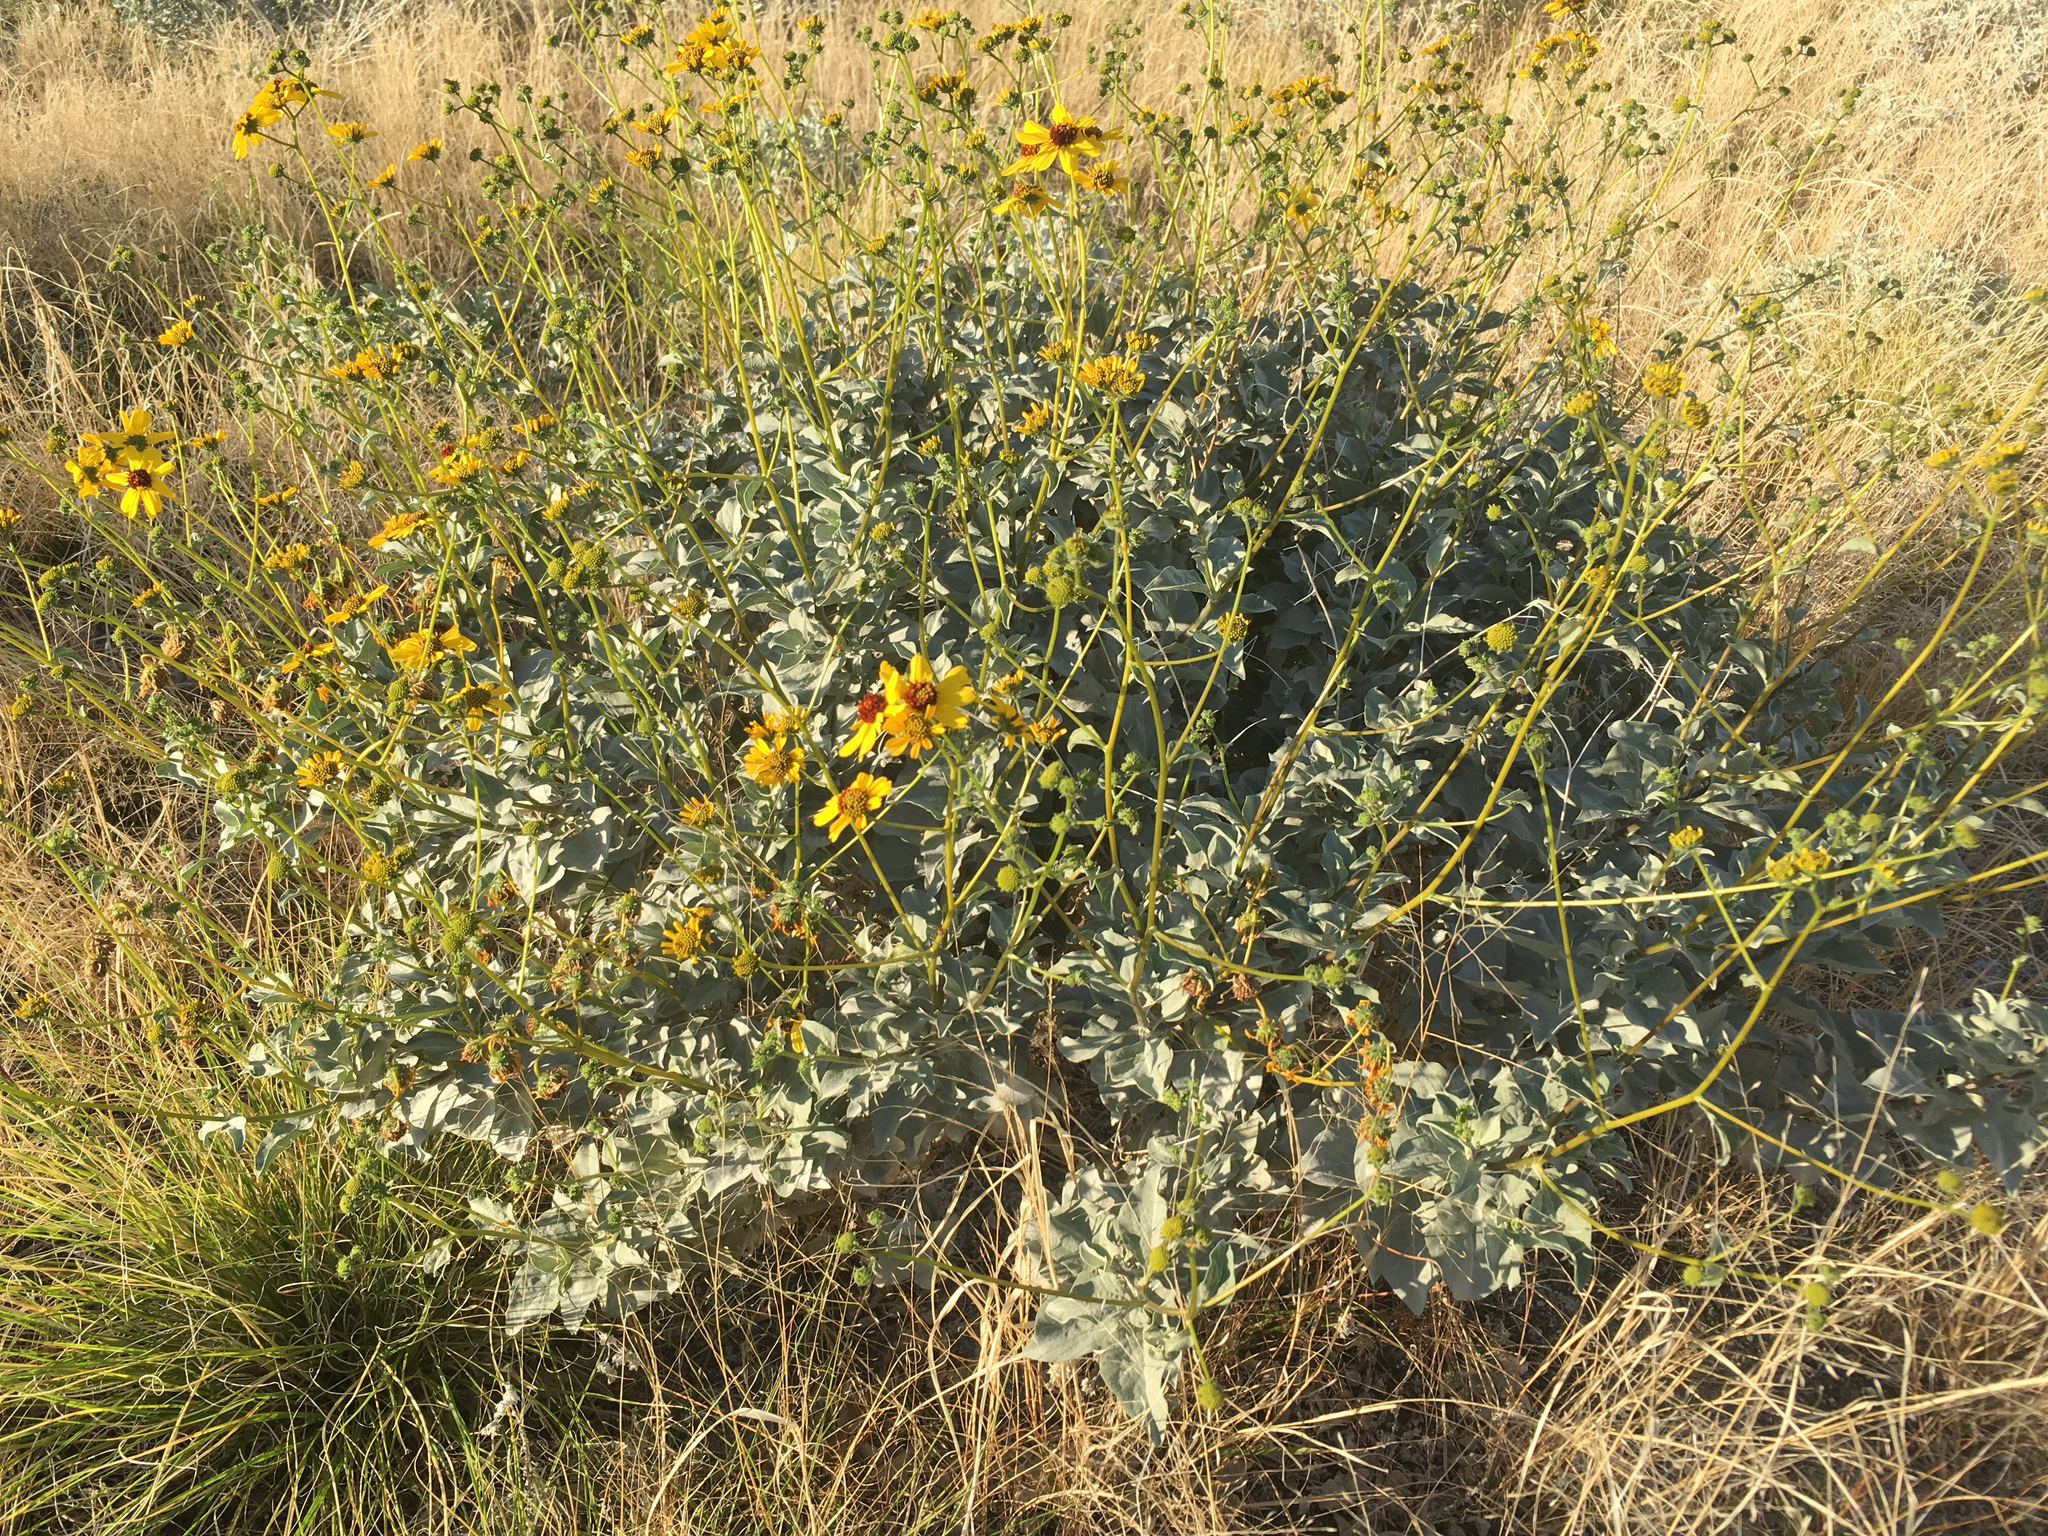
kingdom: Plantae
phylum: Tracheophyta
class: Magnoliopsida
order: Asterales
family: Asteraceae
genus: Encelia
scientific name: Encelia farinosa
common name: Brittlebush
